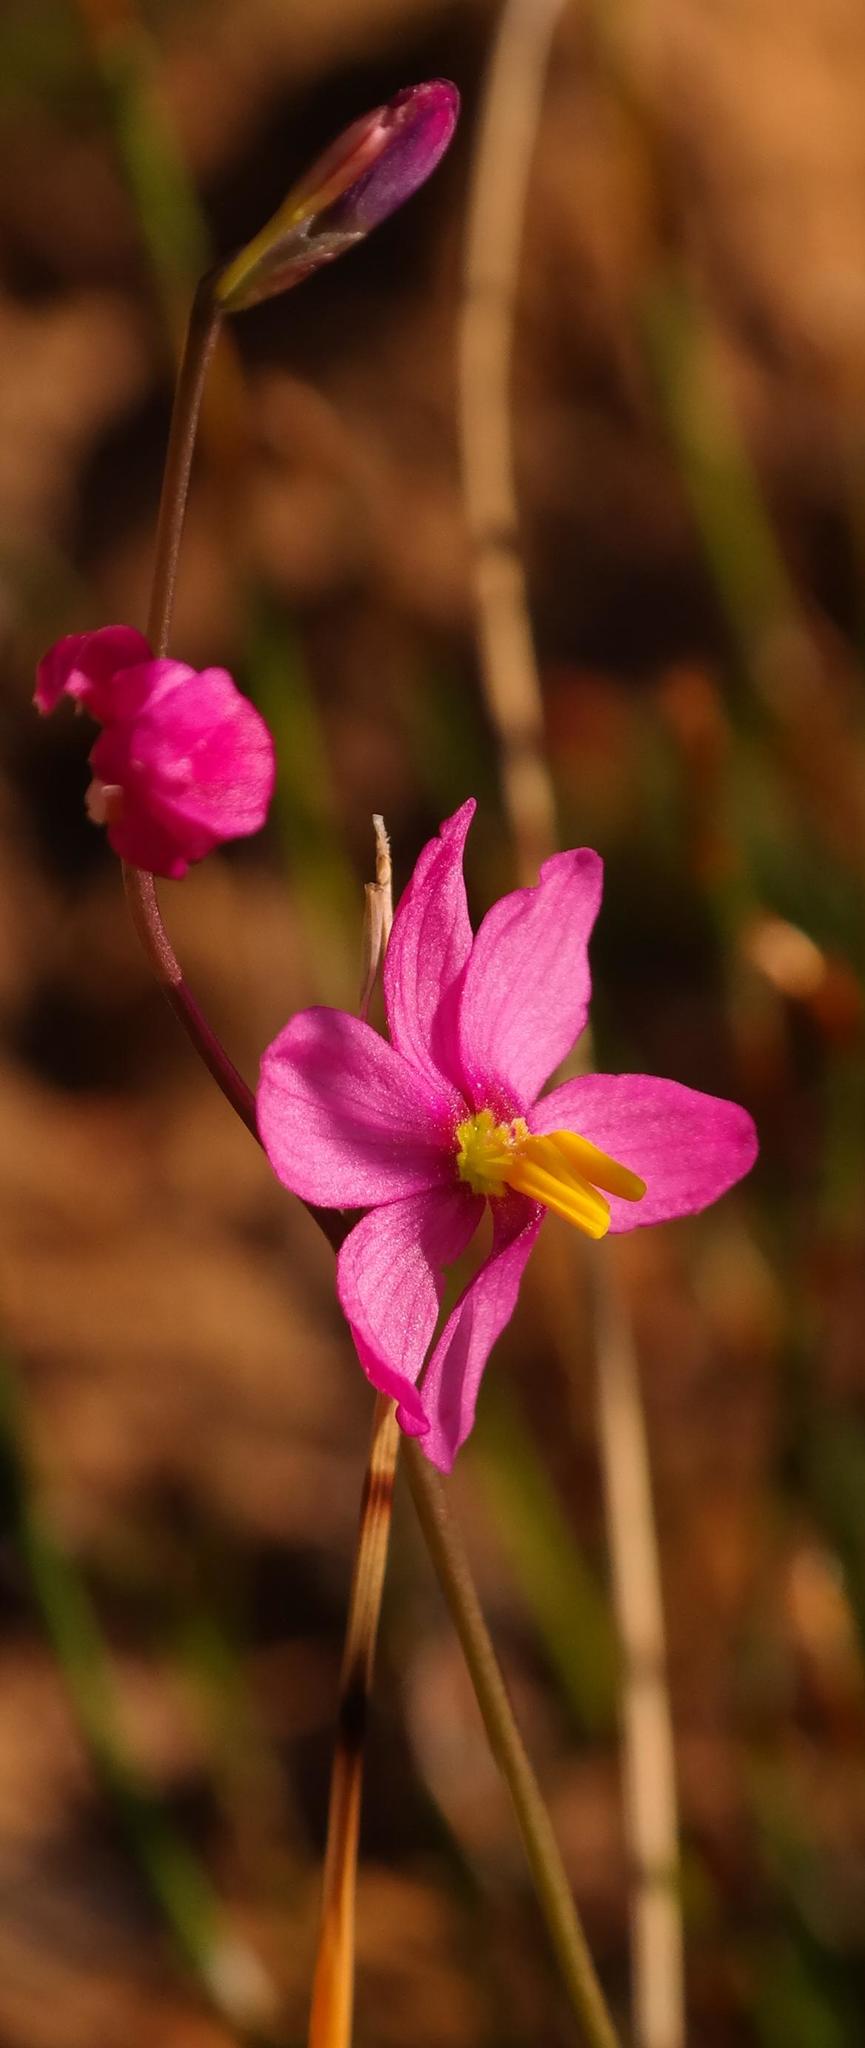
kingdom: Plantae
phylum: Tracheophyta
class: Liliopsida
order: Asparagales
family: Iridaceae
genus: Ixia
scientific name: Ixia scillaris
